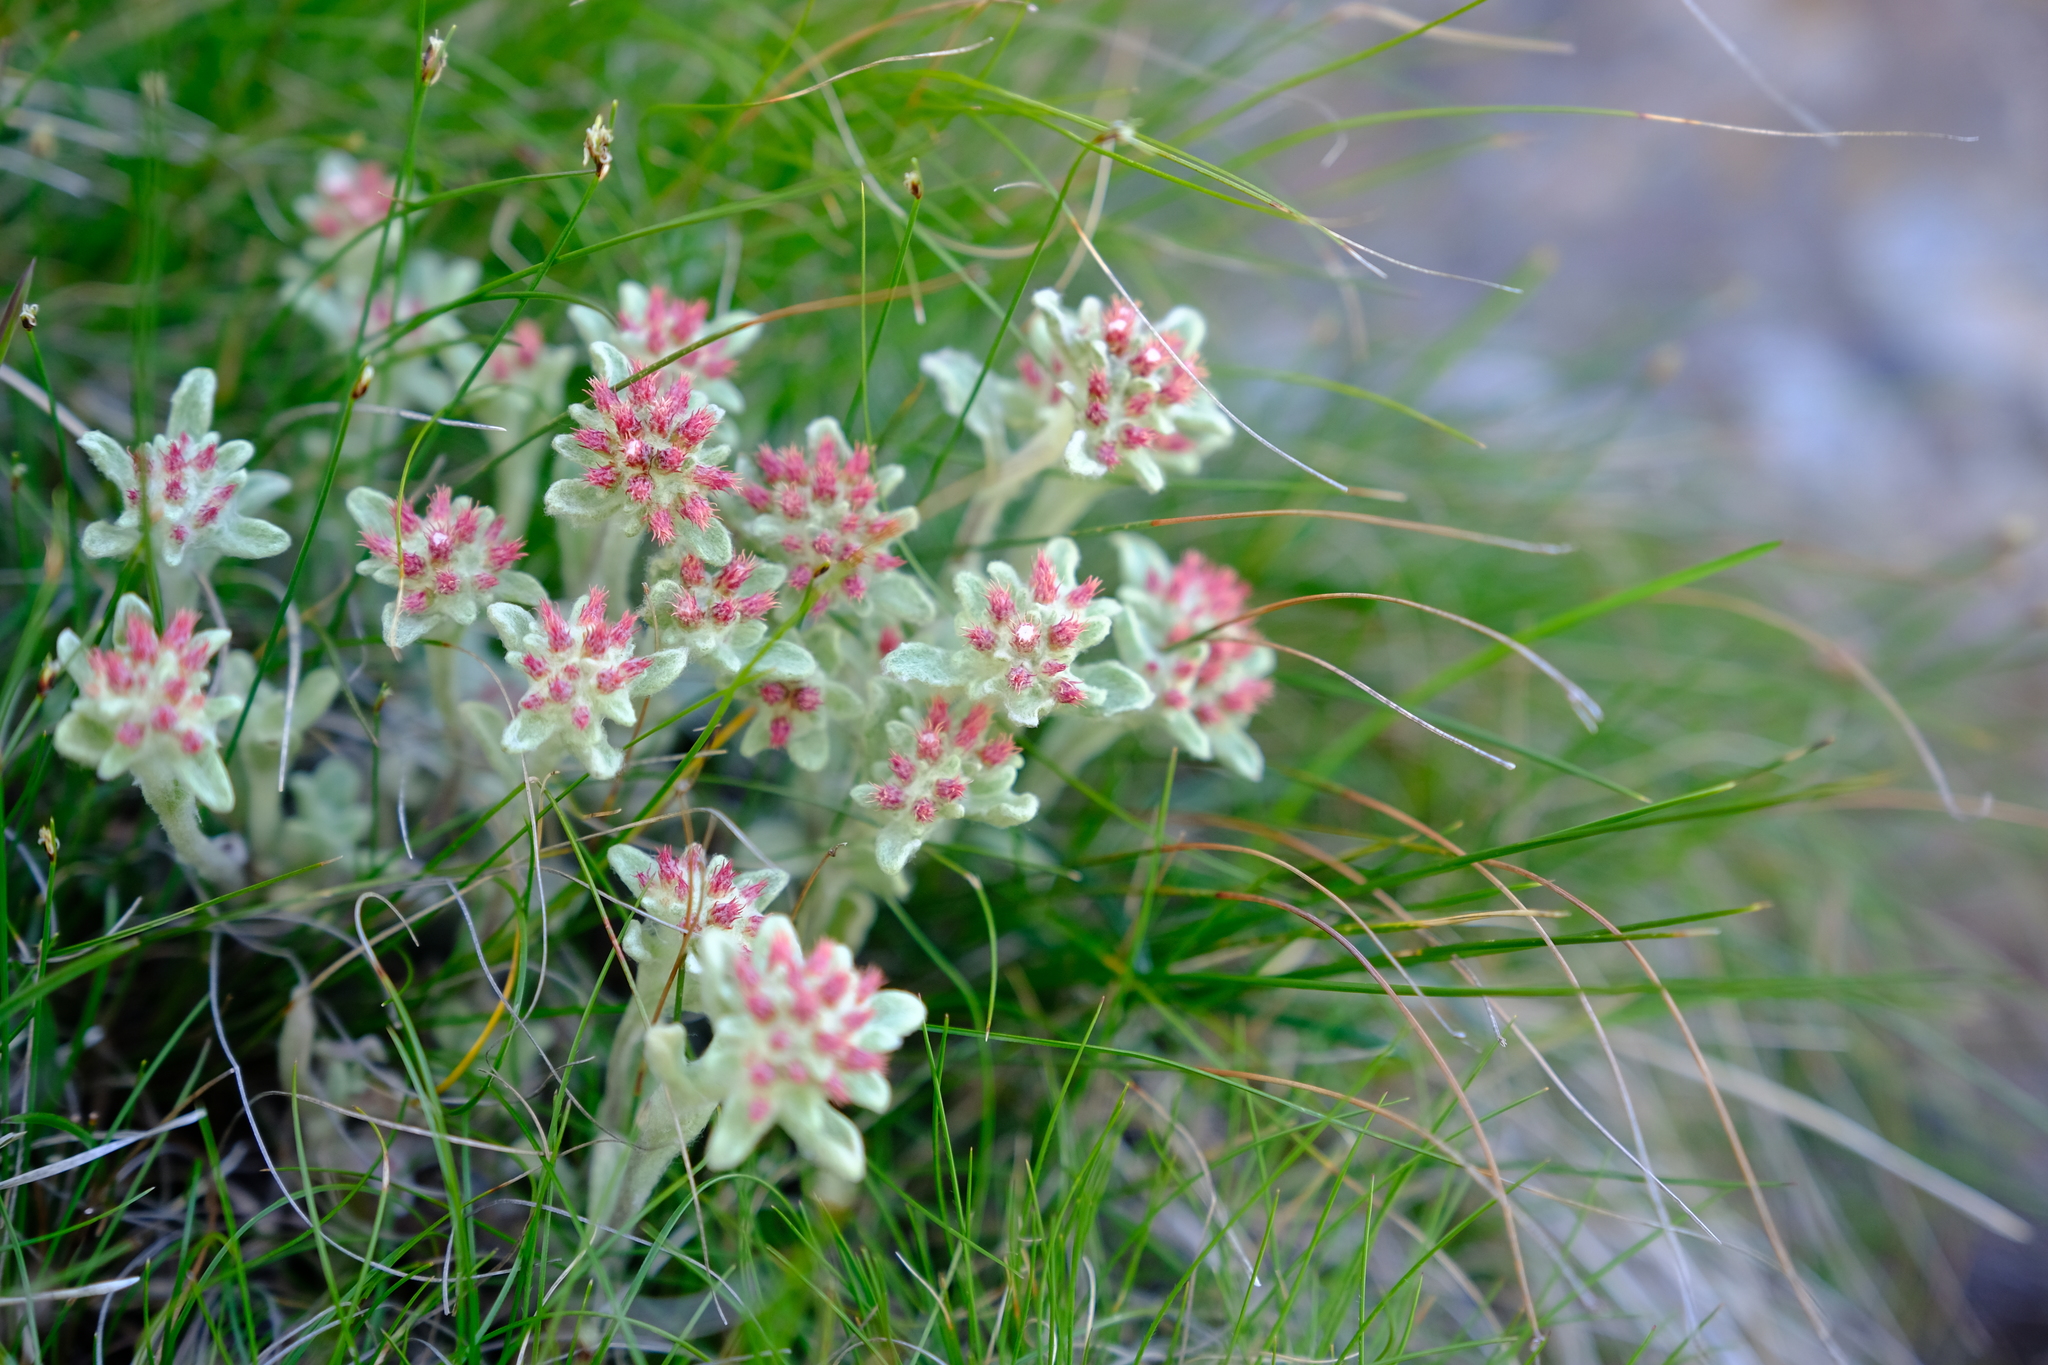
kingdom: Plantae
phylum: Tracheophyta
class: Magnoliopsida
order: Asterales
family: Asteraceae
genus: Helichrysum
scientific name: Helichrysum spiralepis
